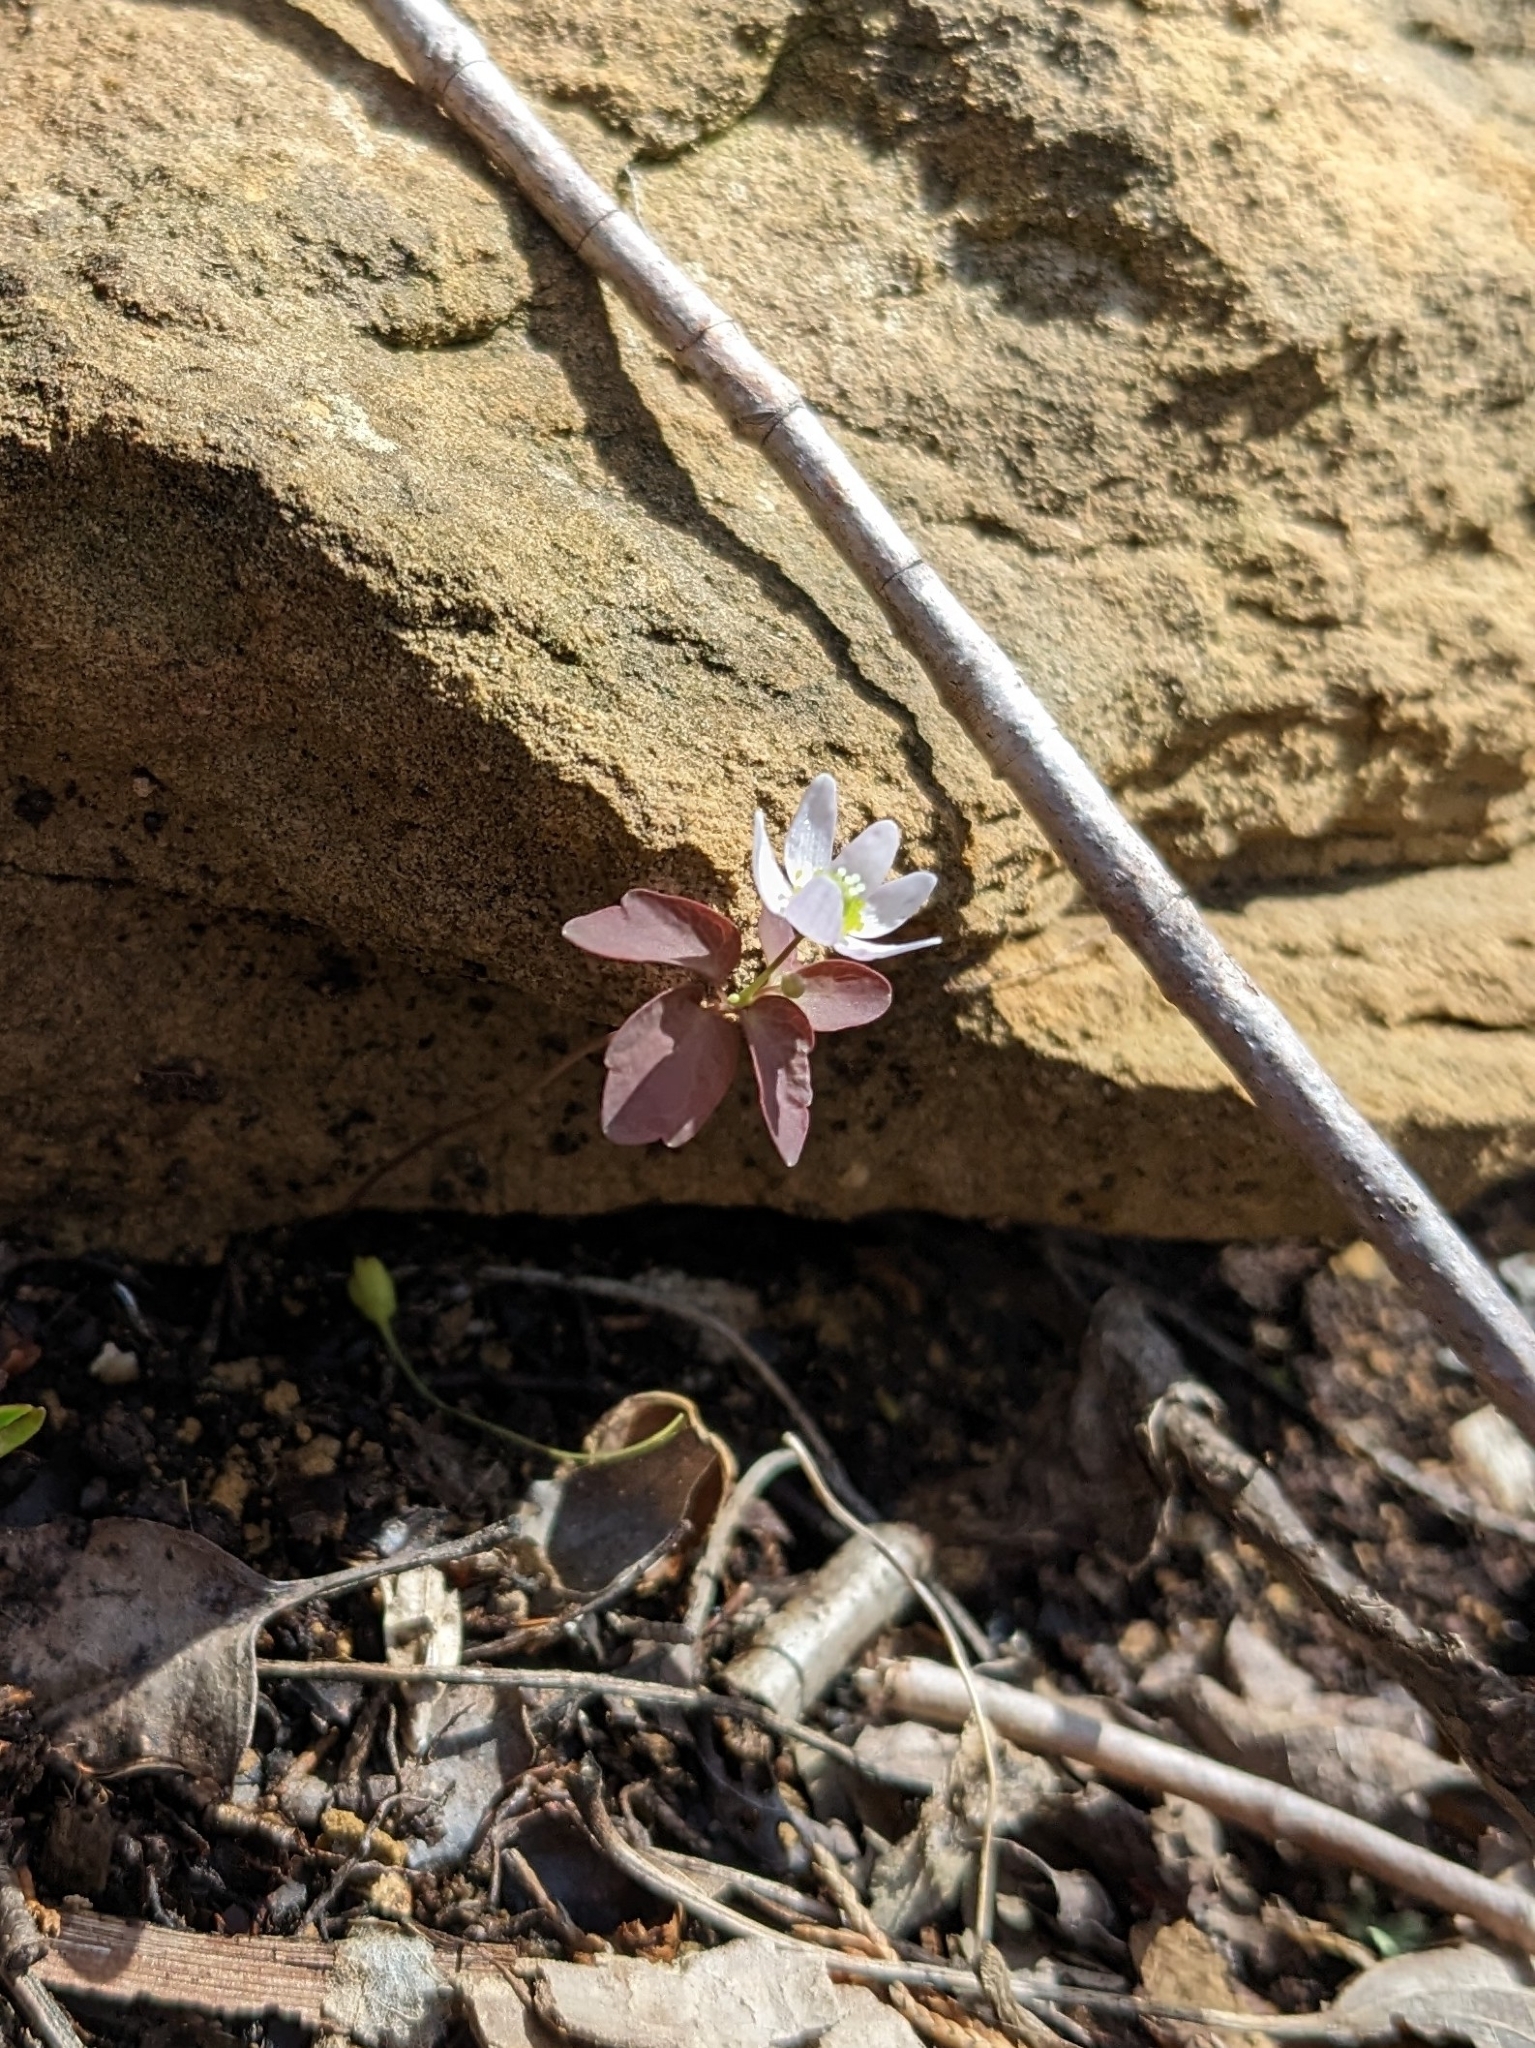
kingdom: Plantae
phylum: Tracheophyta
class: Magnoliopsida
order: Ranunculales
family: Ranunculaceae
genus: Thalictrum
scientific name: Thalictrum thalictroides
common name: Rue-anemone
